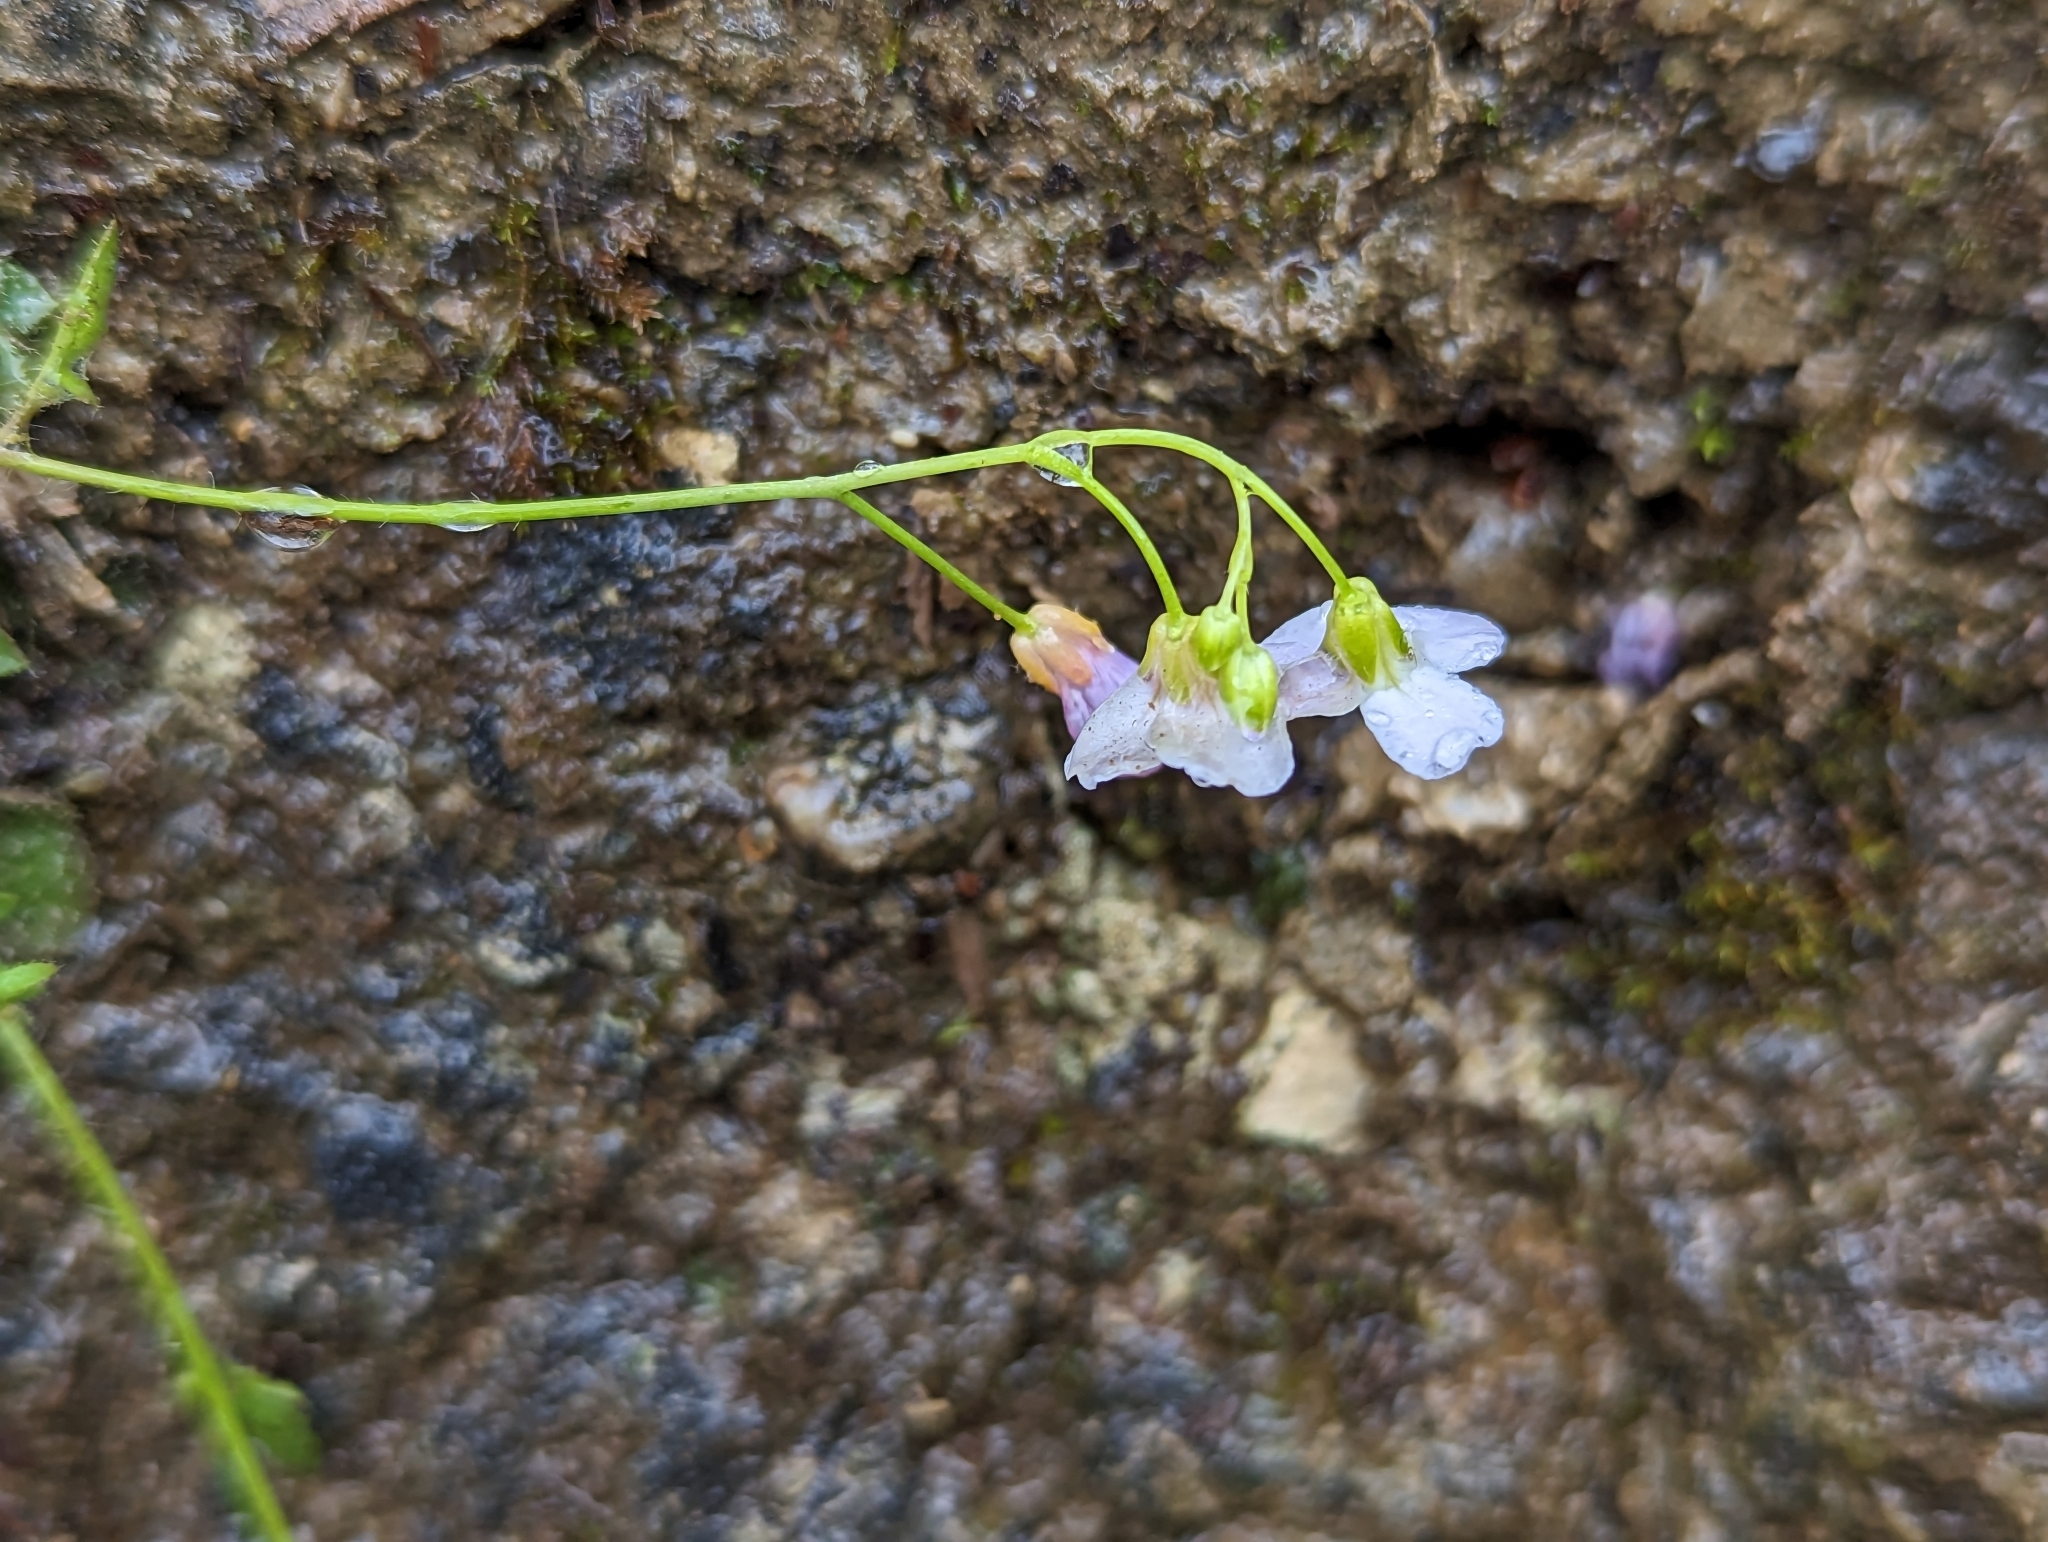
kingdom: Plantae
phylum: Tracheophyta
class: Magnoliopsida
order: Brassicales
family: Brassicaceae
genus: Arabidopsis
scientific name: Arabidopsis arenosa
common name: Sand rock-cress
